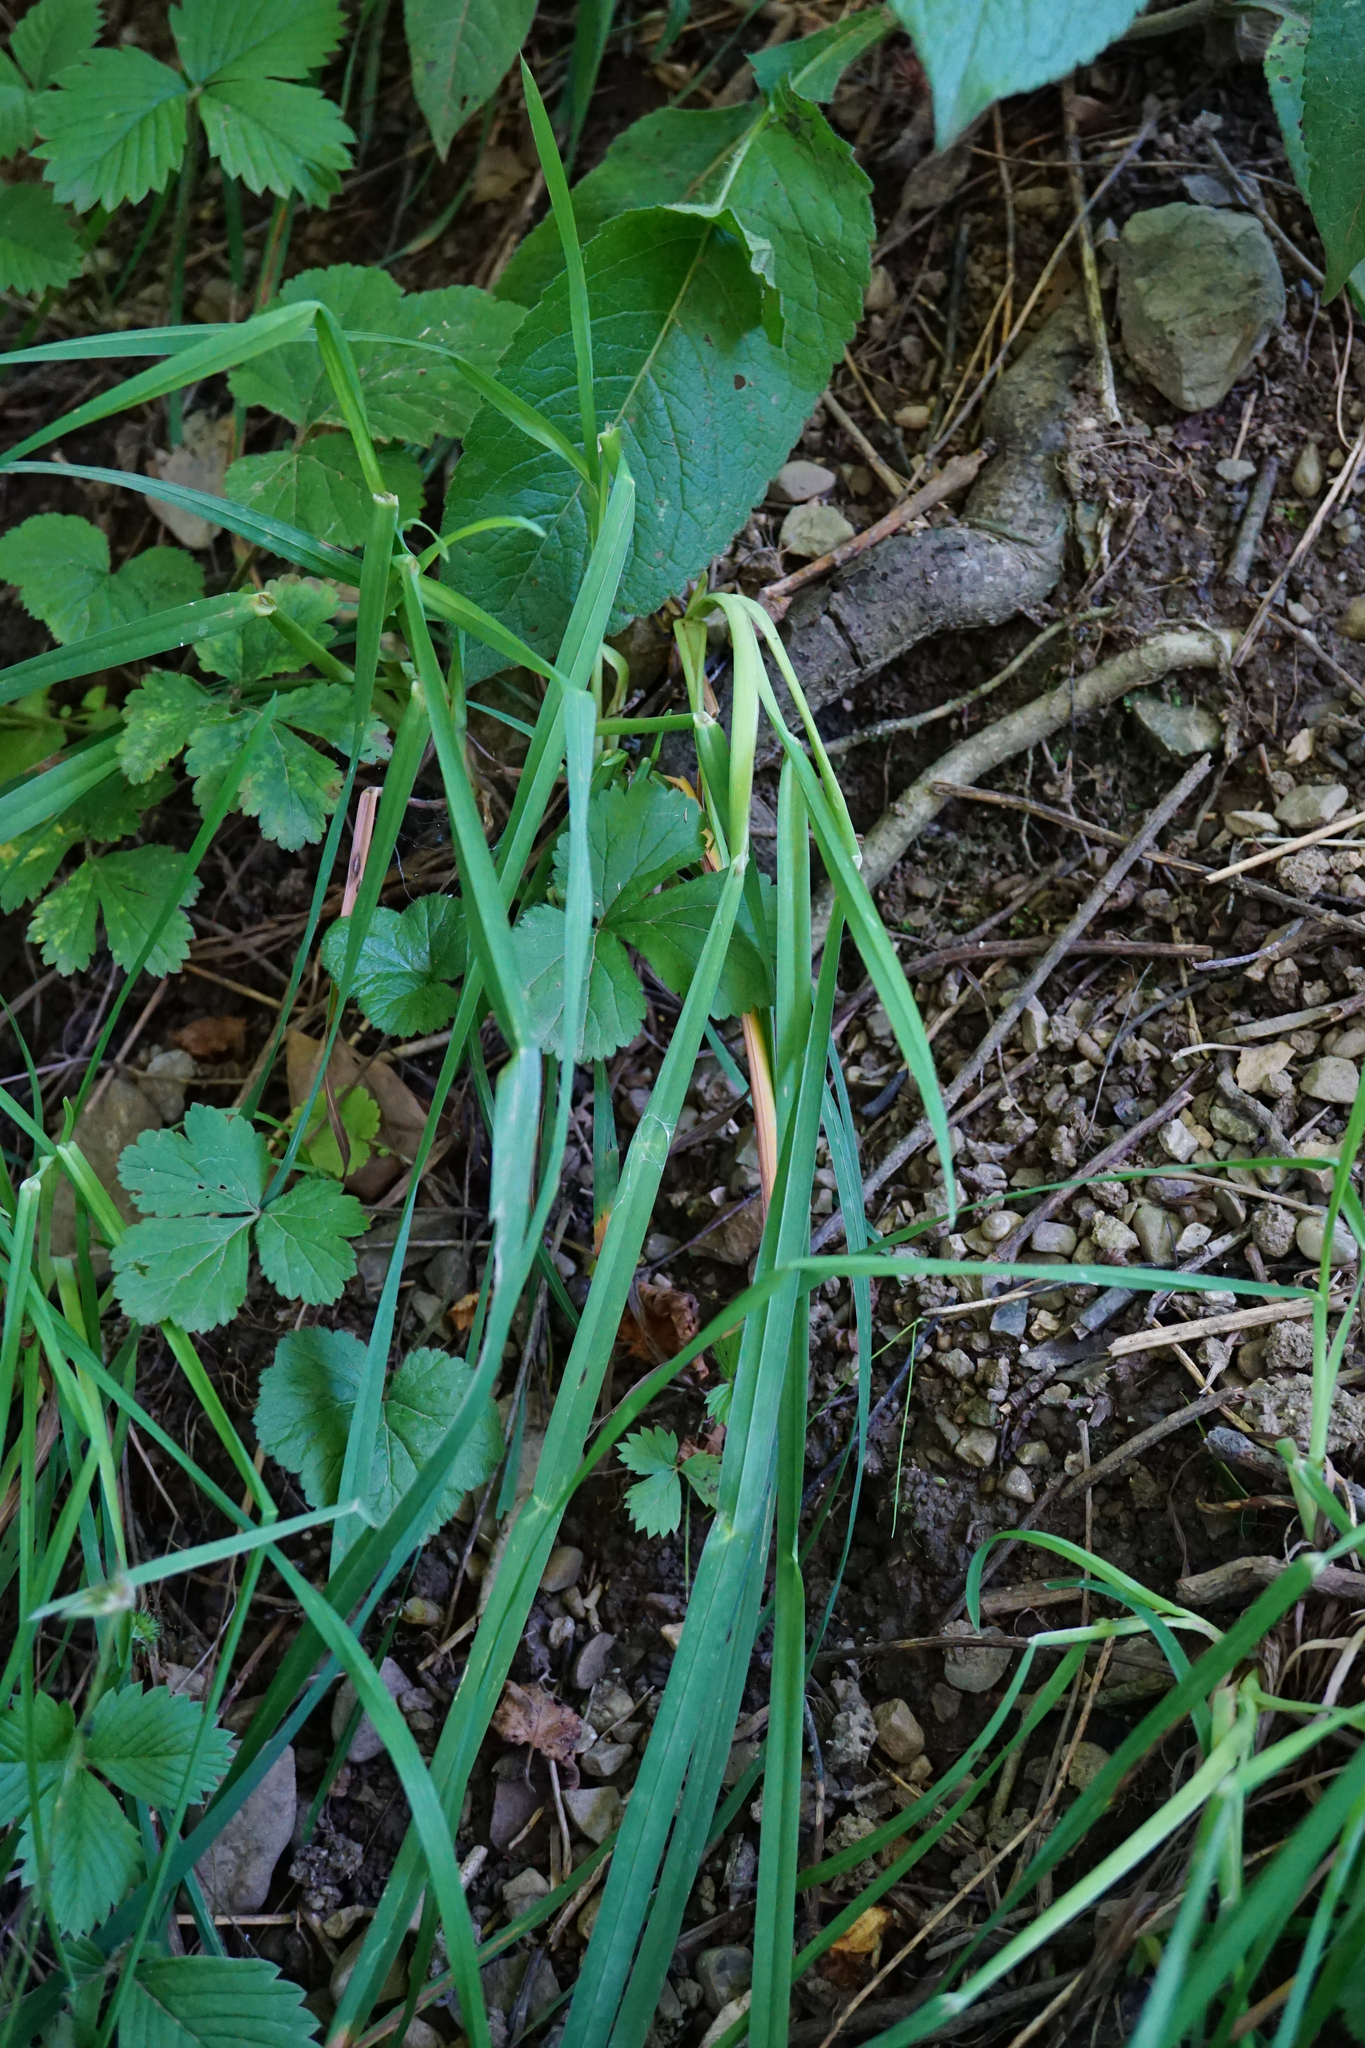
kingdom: Plantae
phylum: Tracheophyta
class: Liliopsida
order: Poales
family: Poaceae
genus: Dactylis
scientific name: Dactylis glomerata
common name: Orchardgrass
